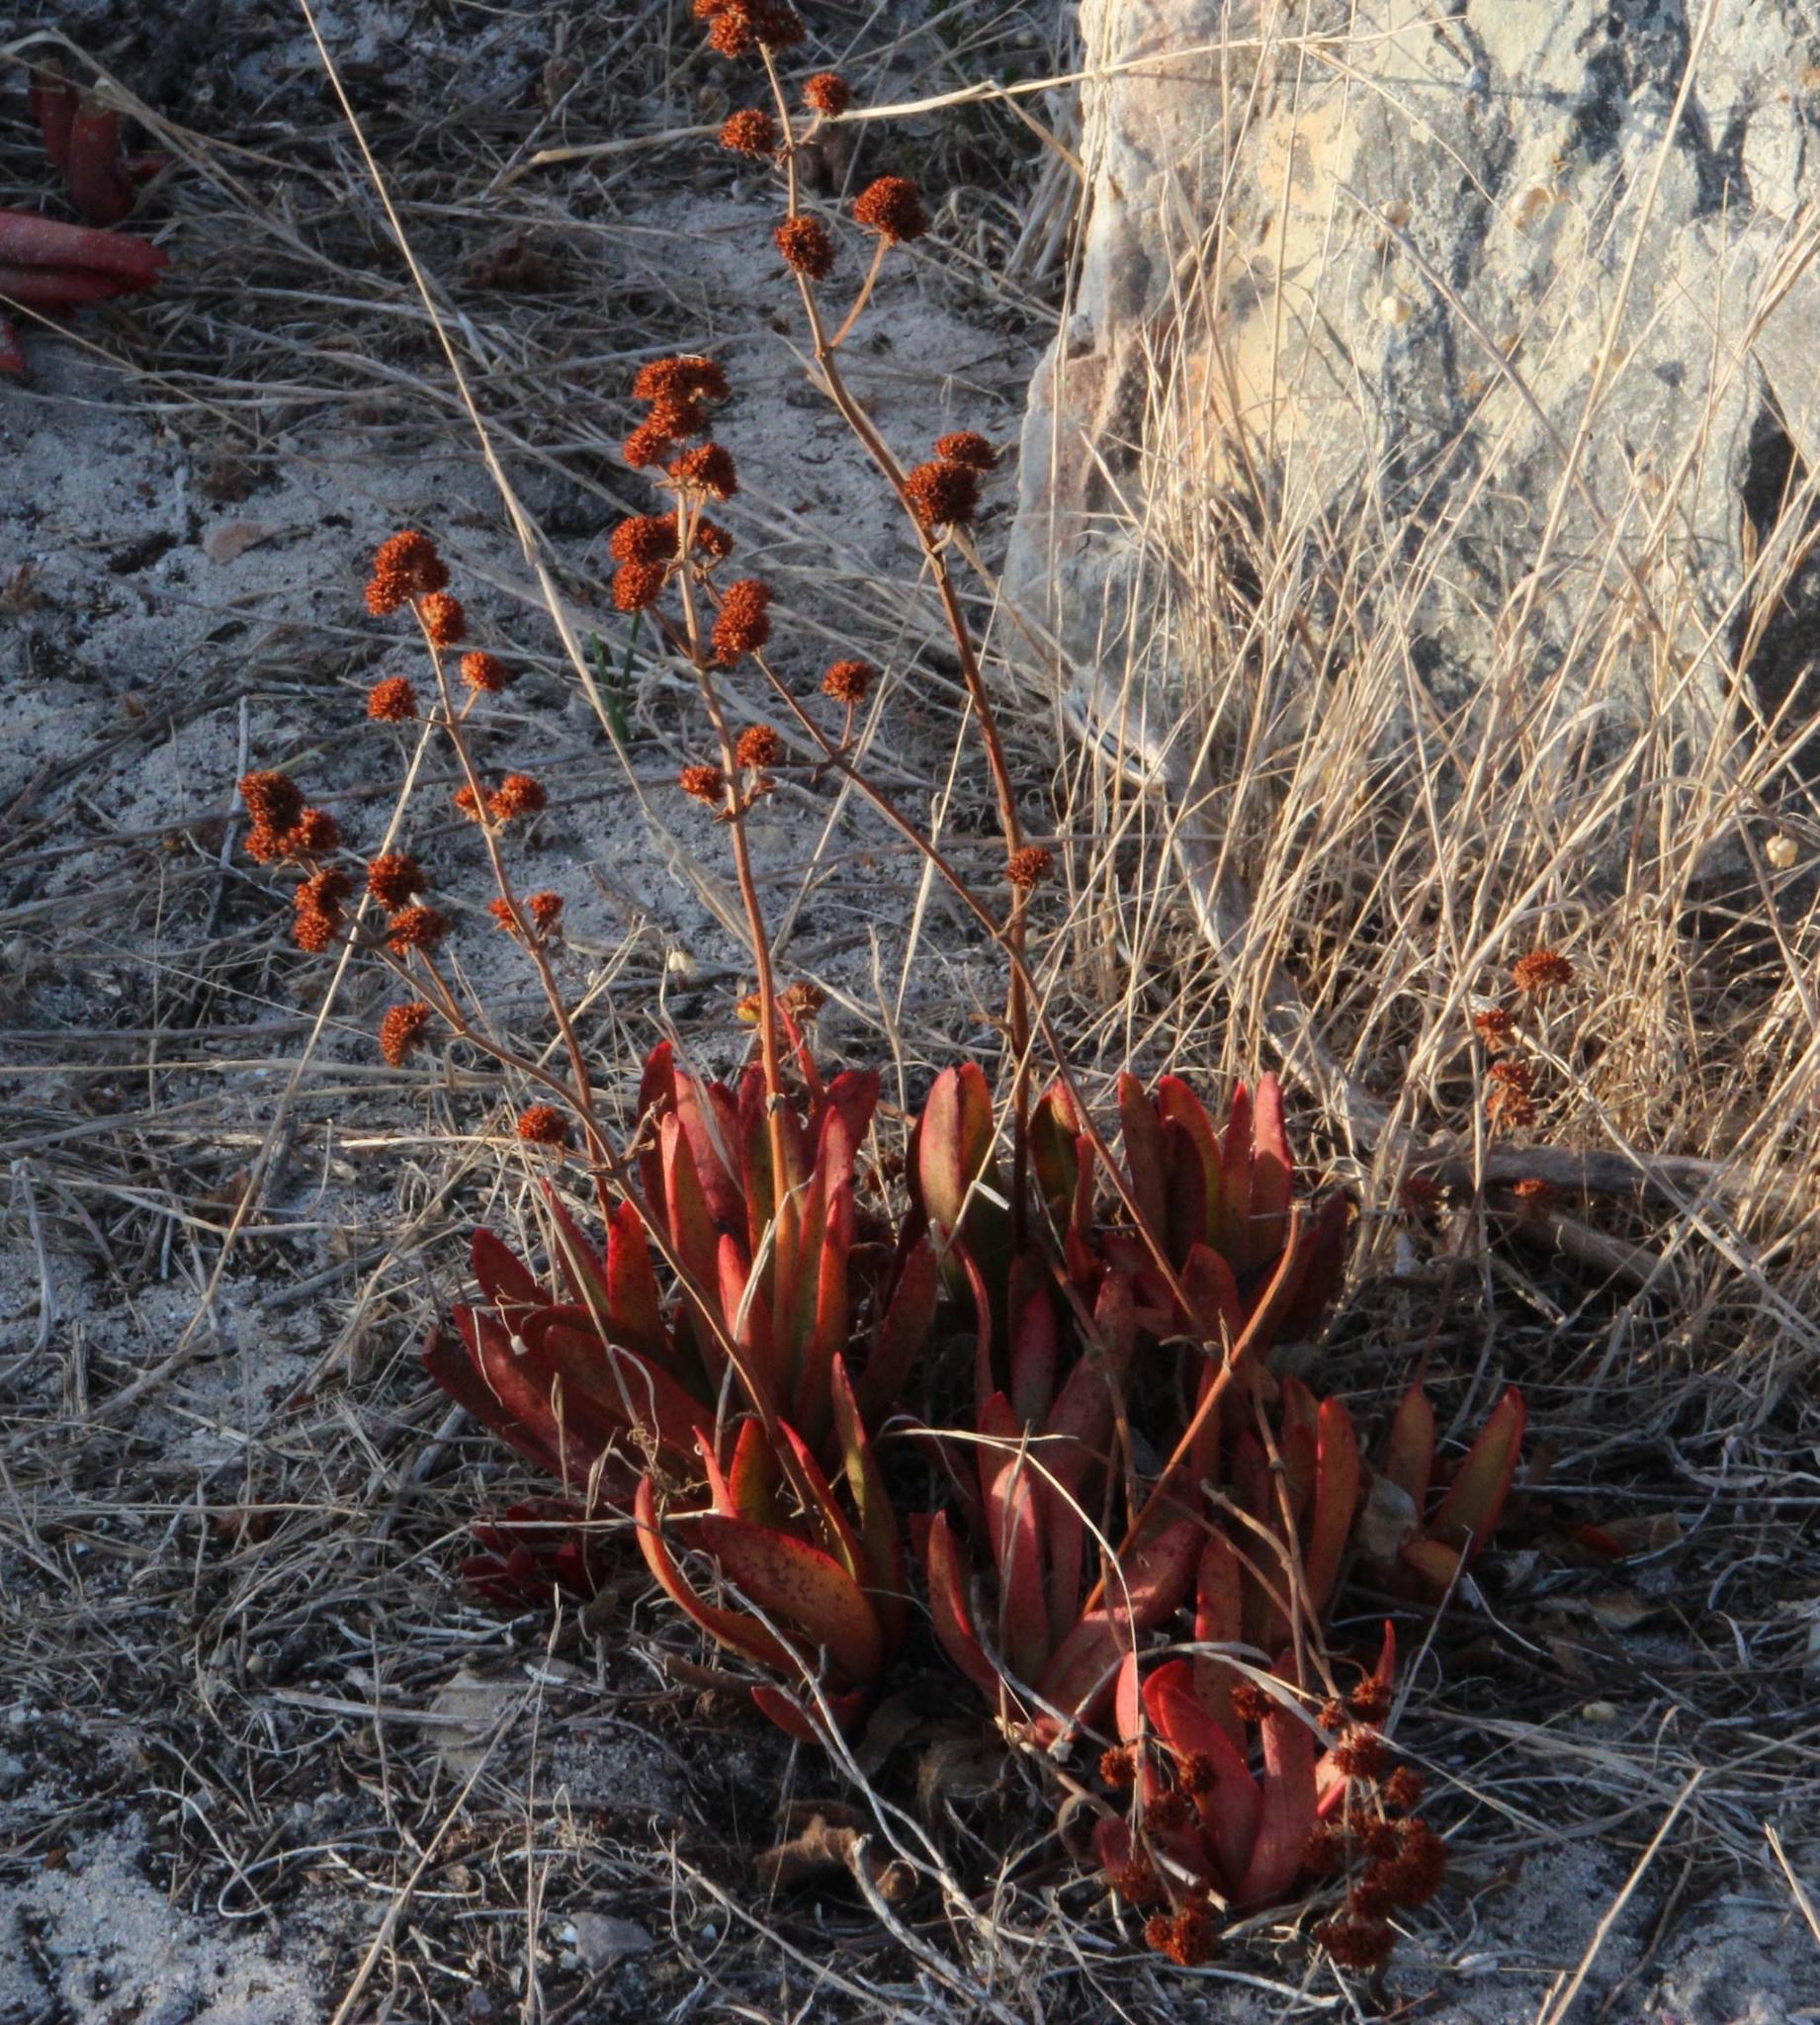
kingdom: Plantae
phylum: Tracheophyta
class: Magnoliopsida
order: Saxifragales
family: Crassulaceae
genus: Crassula
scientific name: Crassula nudicaulis
